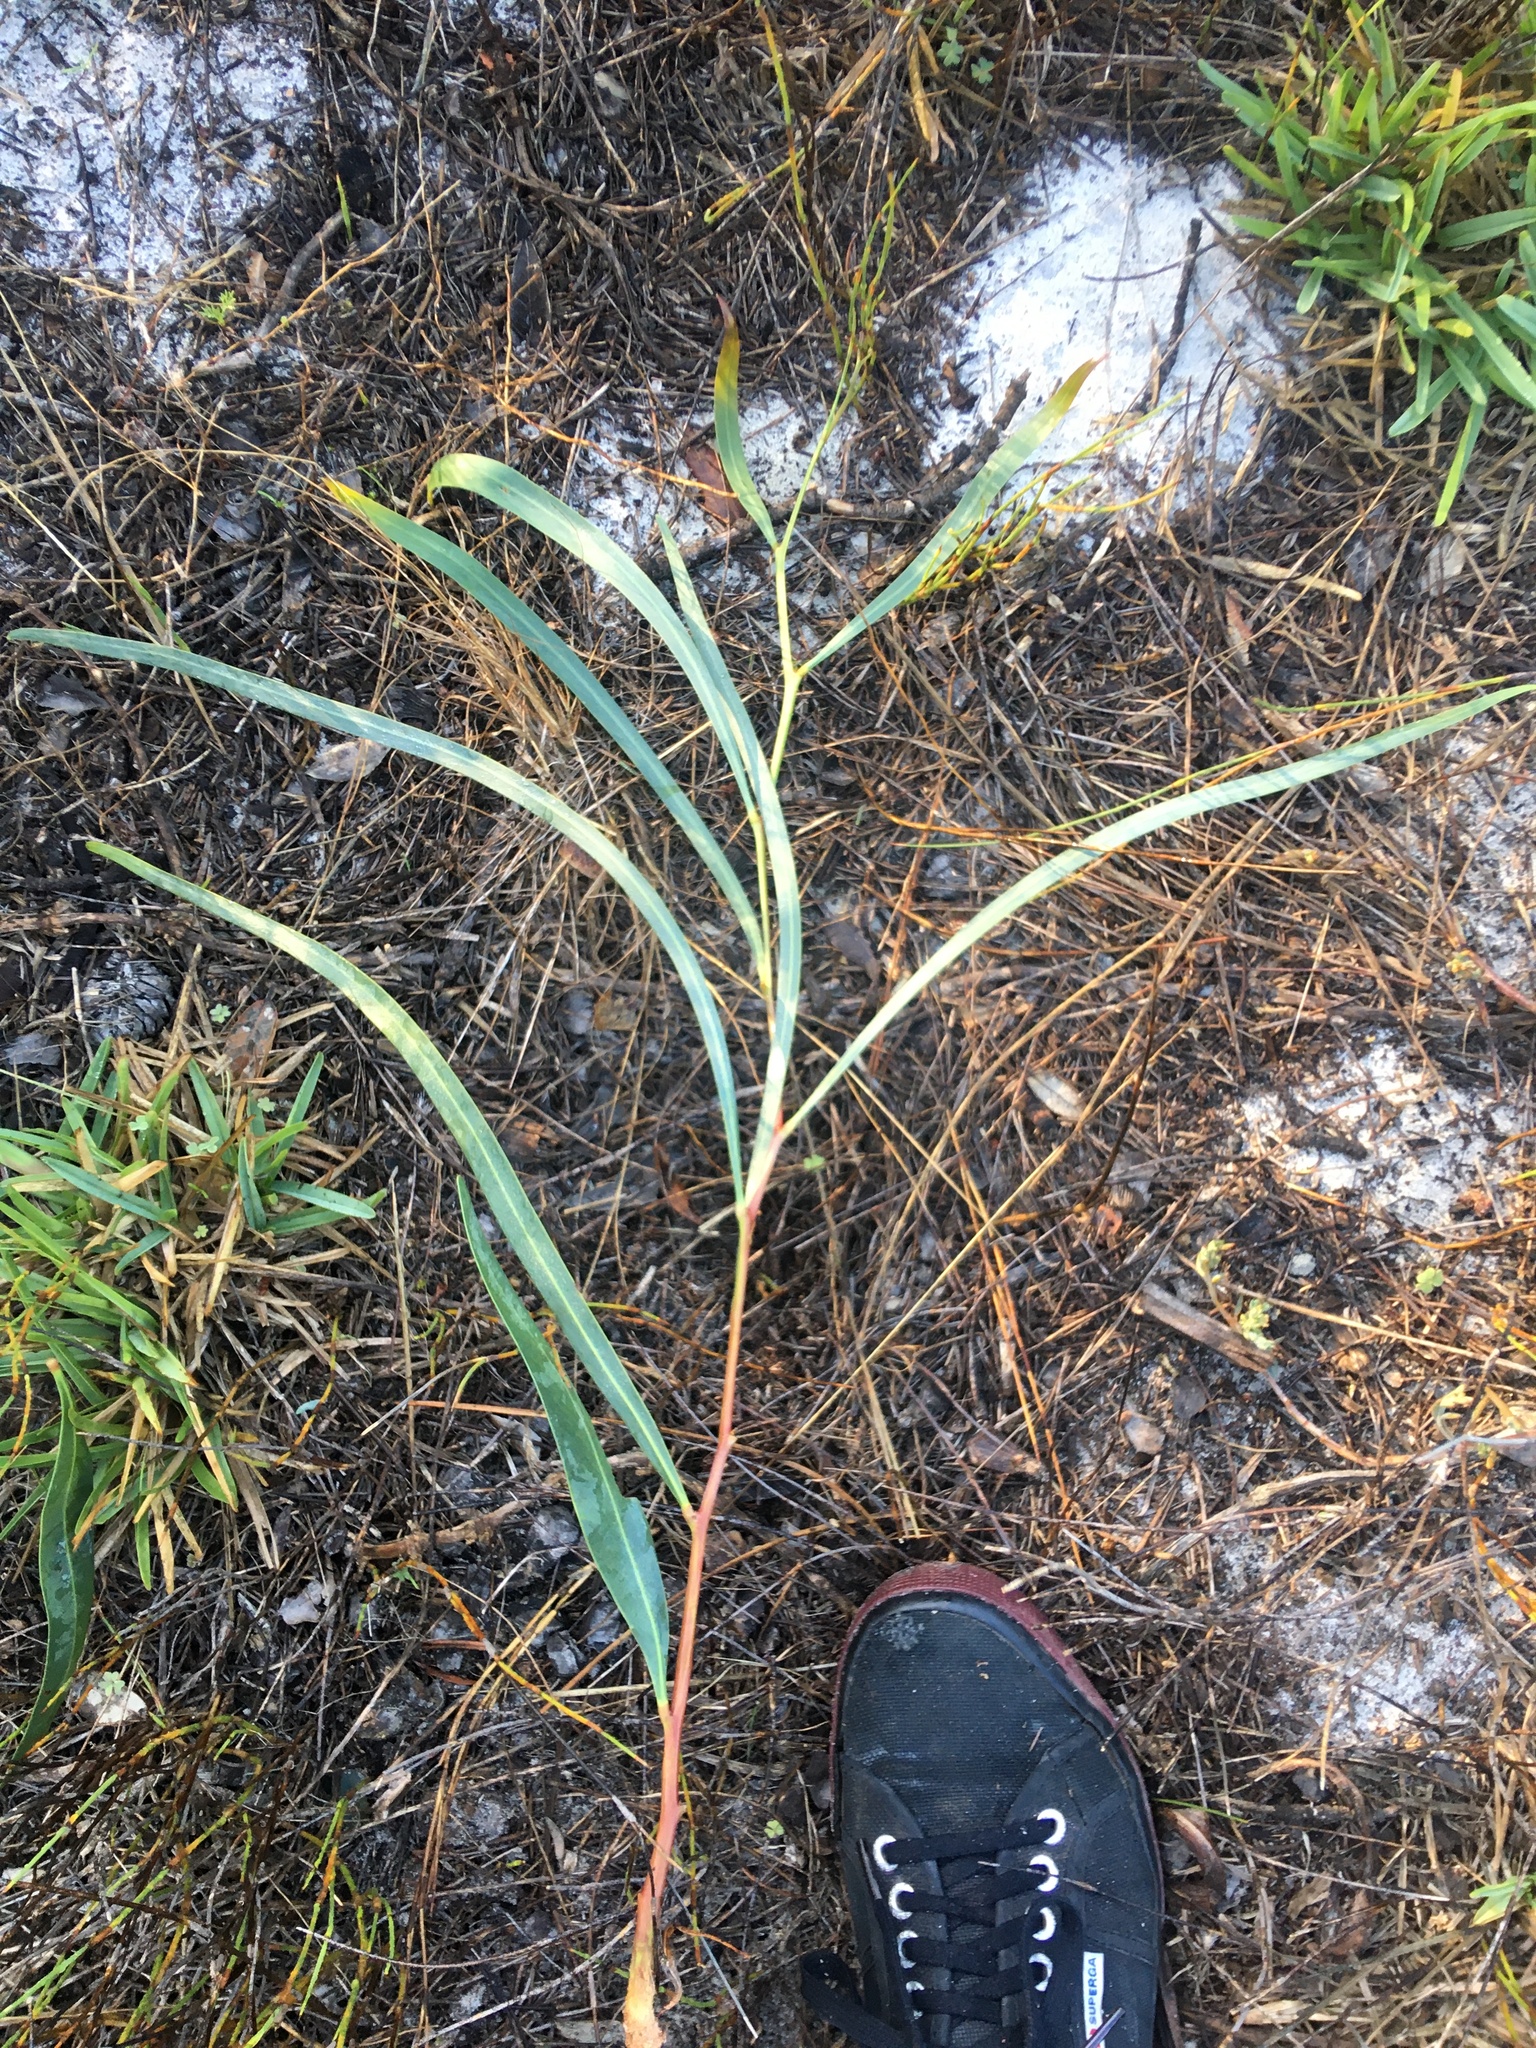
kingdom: Plantae
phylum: Tracheophyta
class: Magnoliopsida
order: Fabales
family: Fabaceae
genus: Acacia
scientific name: Acacia saligna
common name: Orange wattle
